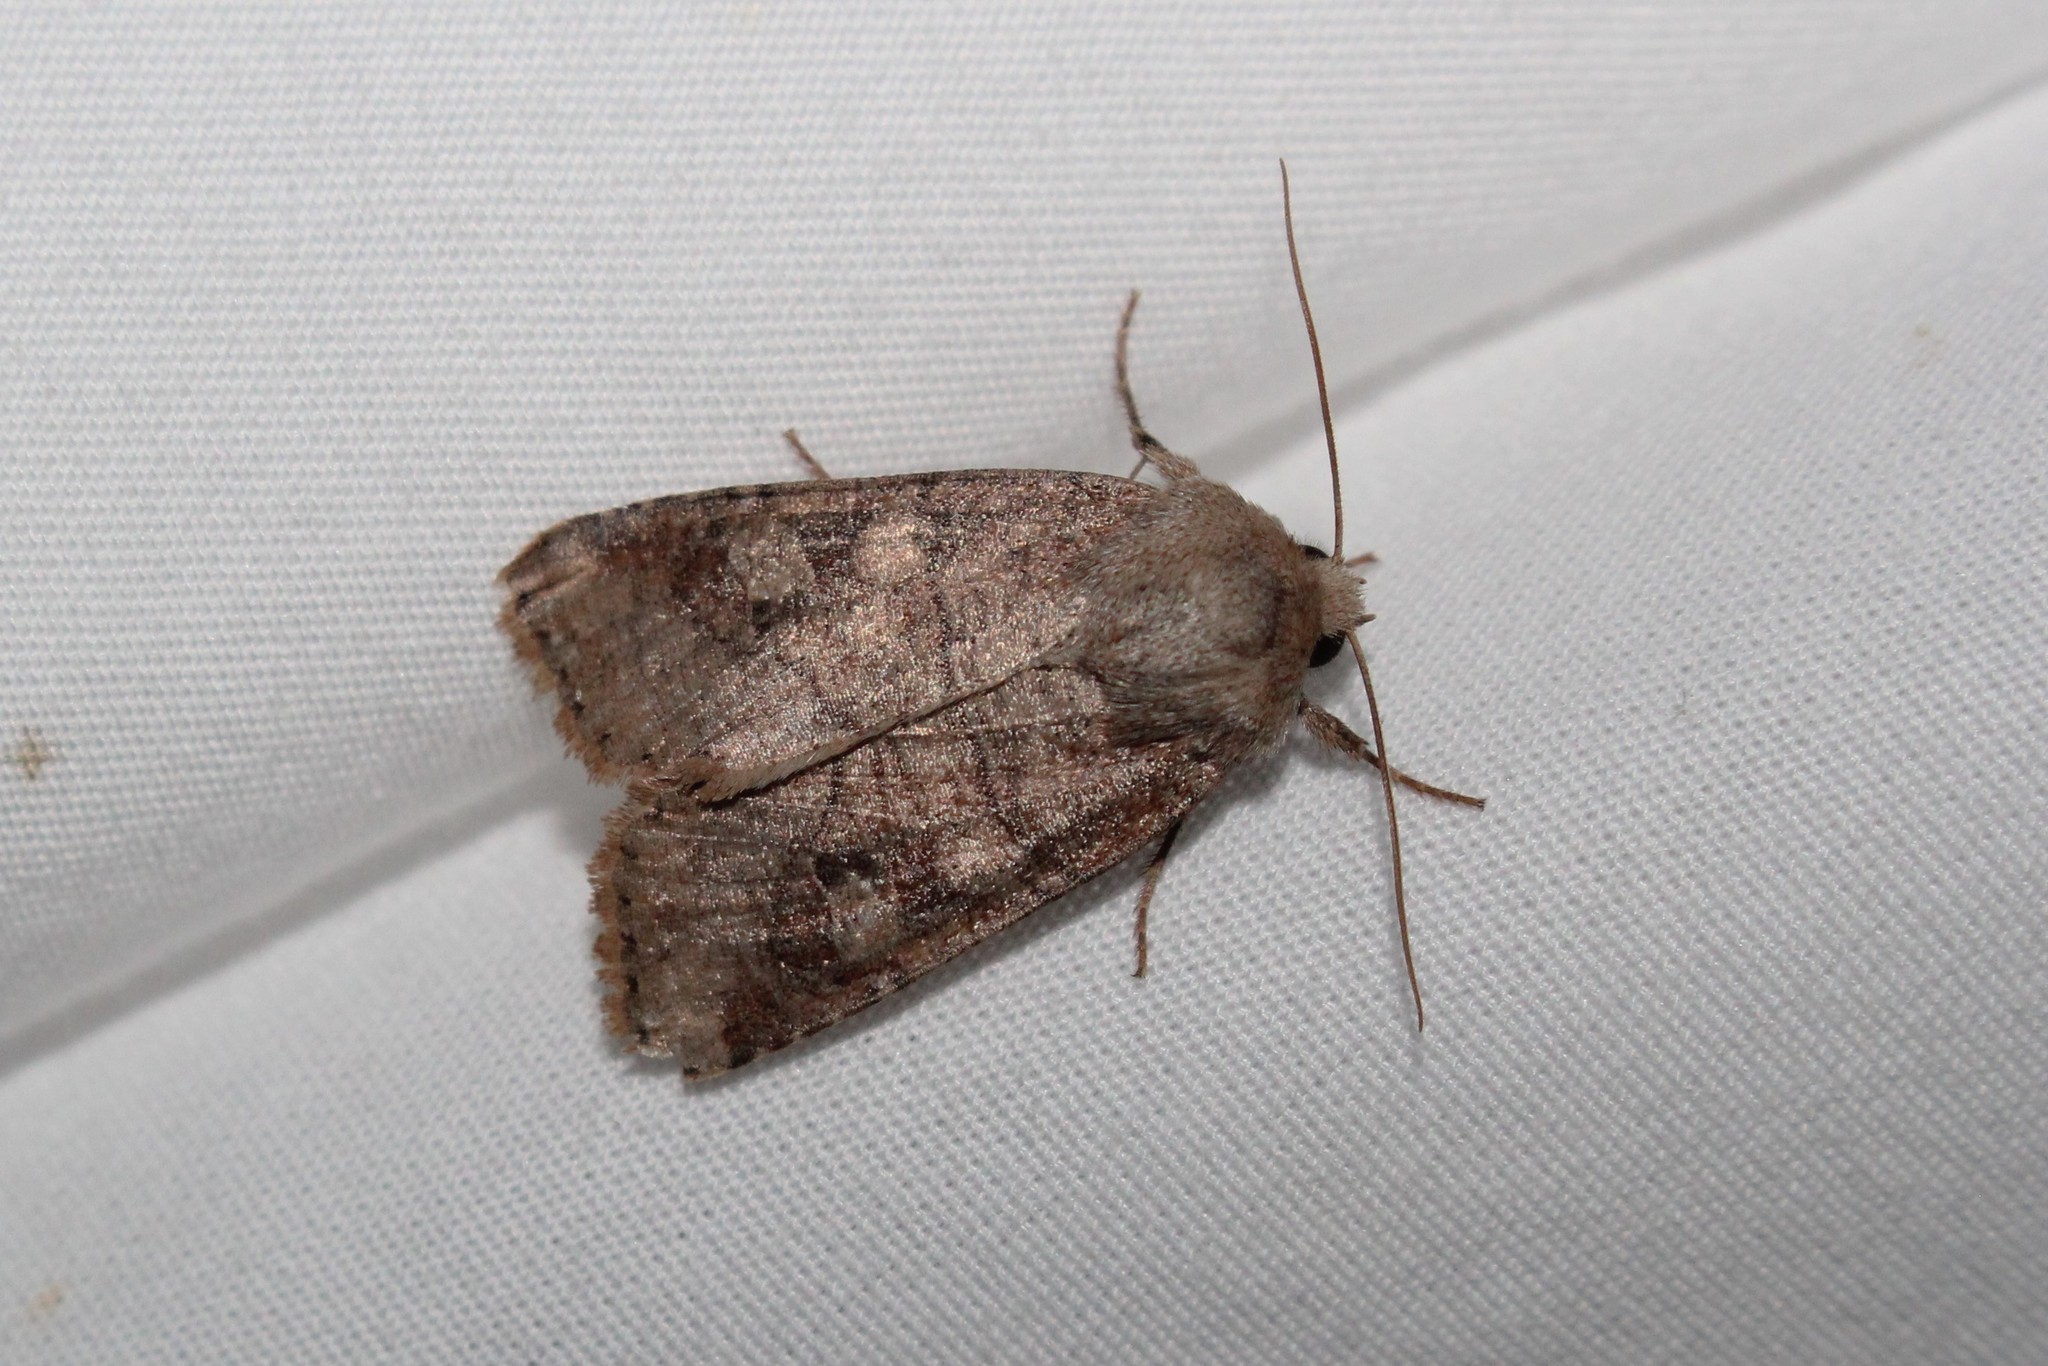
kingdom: Animalia
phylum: Arthropoda
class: Insecta
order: Lepidoptera
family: Noctuidae
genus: Crocigrapha
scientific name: Crocigrapha normani
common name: Norman's quaker
